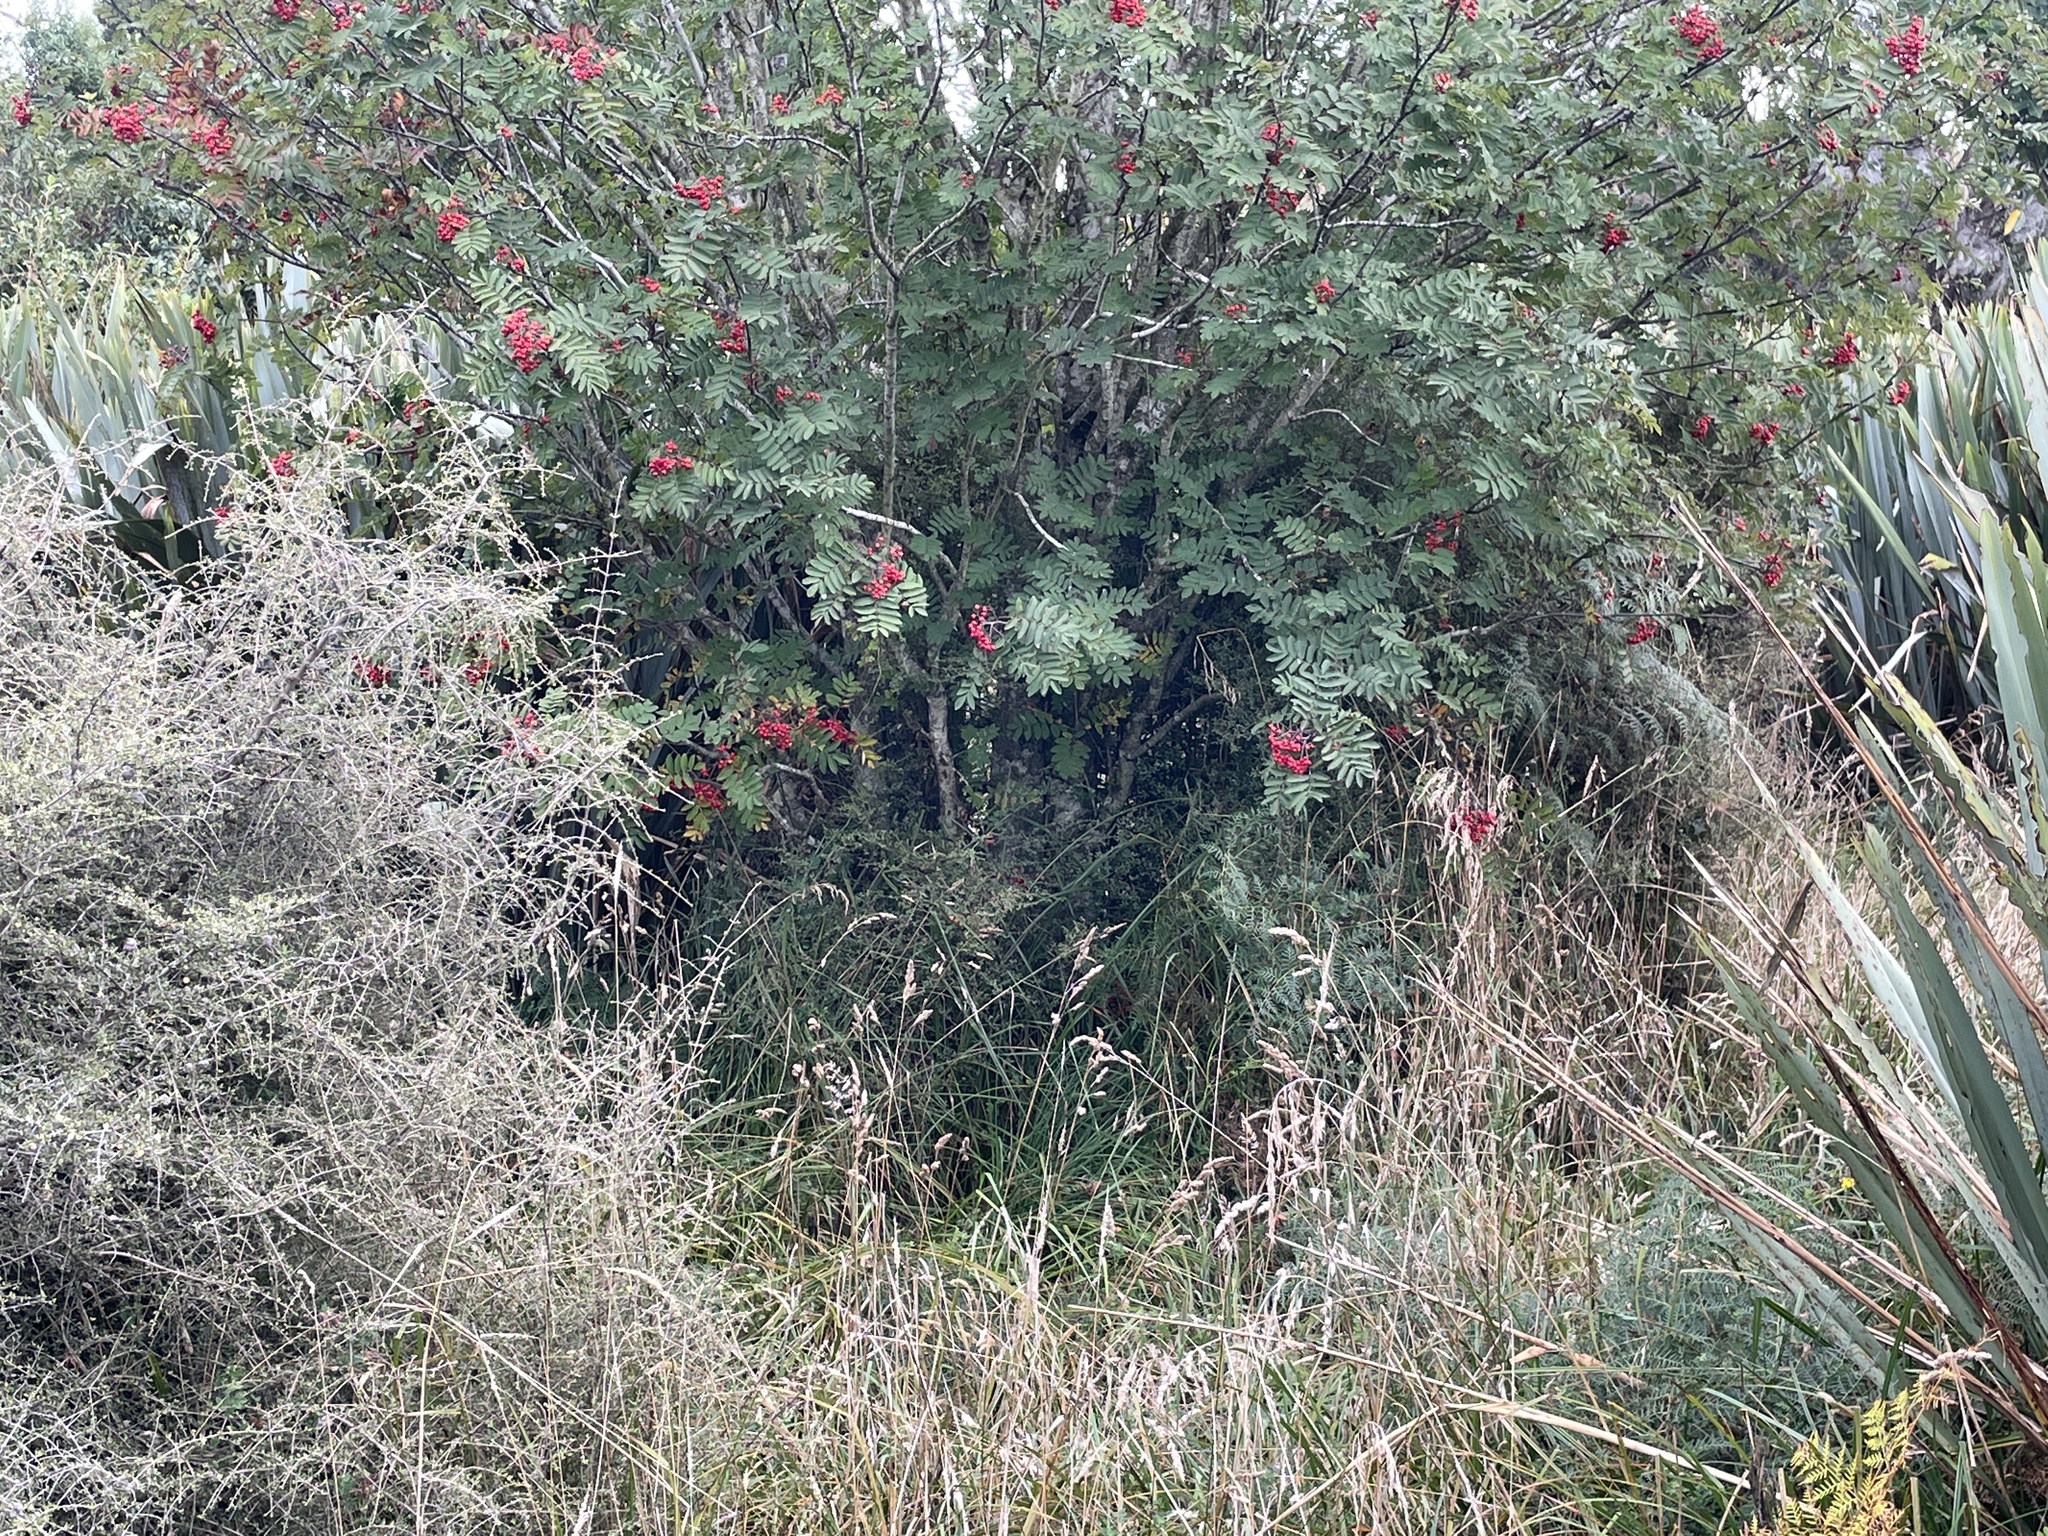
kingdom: Plantae
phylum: Tracheophyta
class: Magnoliopsida
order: Rosales
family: Rosaceae
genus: Sorbus
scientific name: Sorbus aucuparia
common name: Rowan
